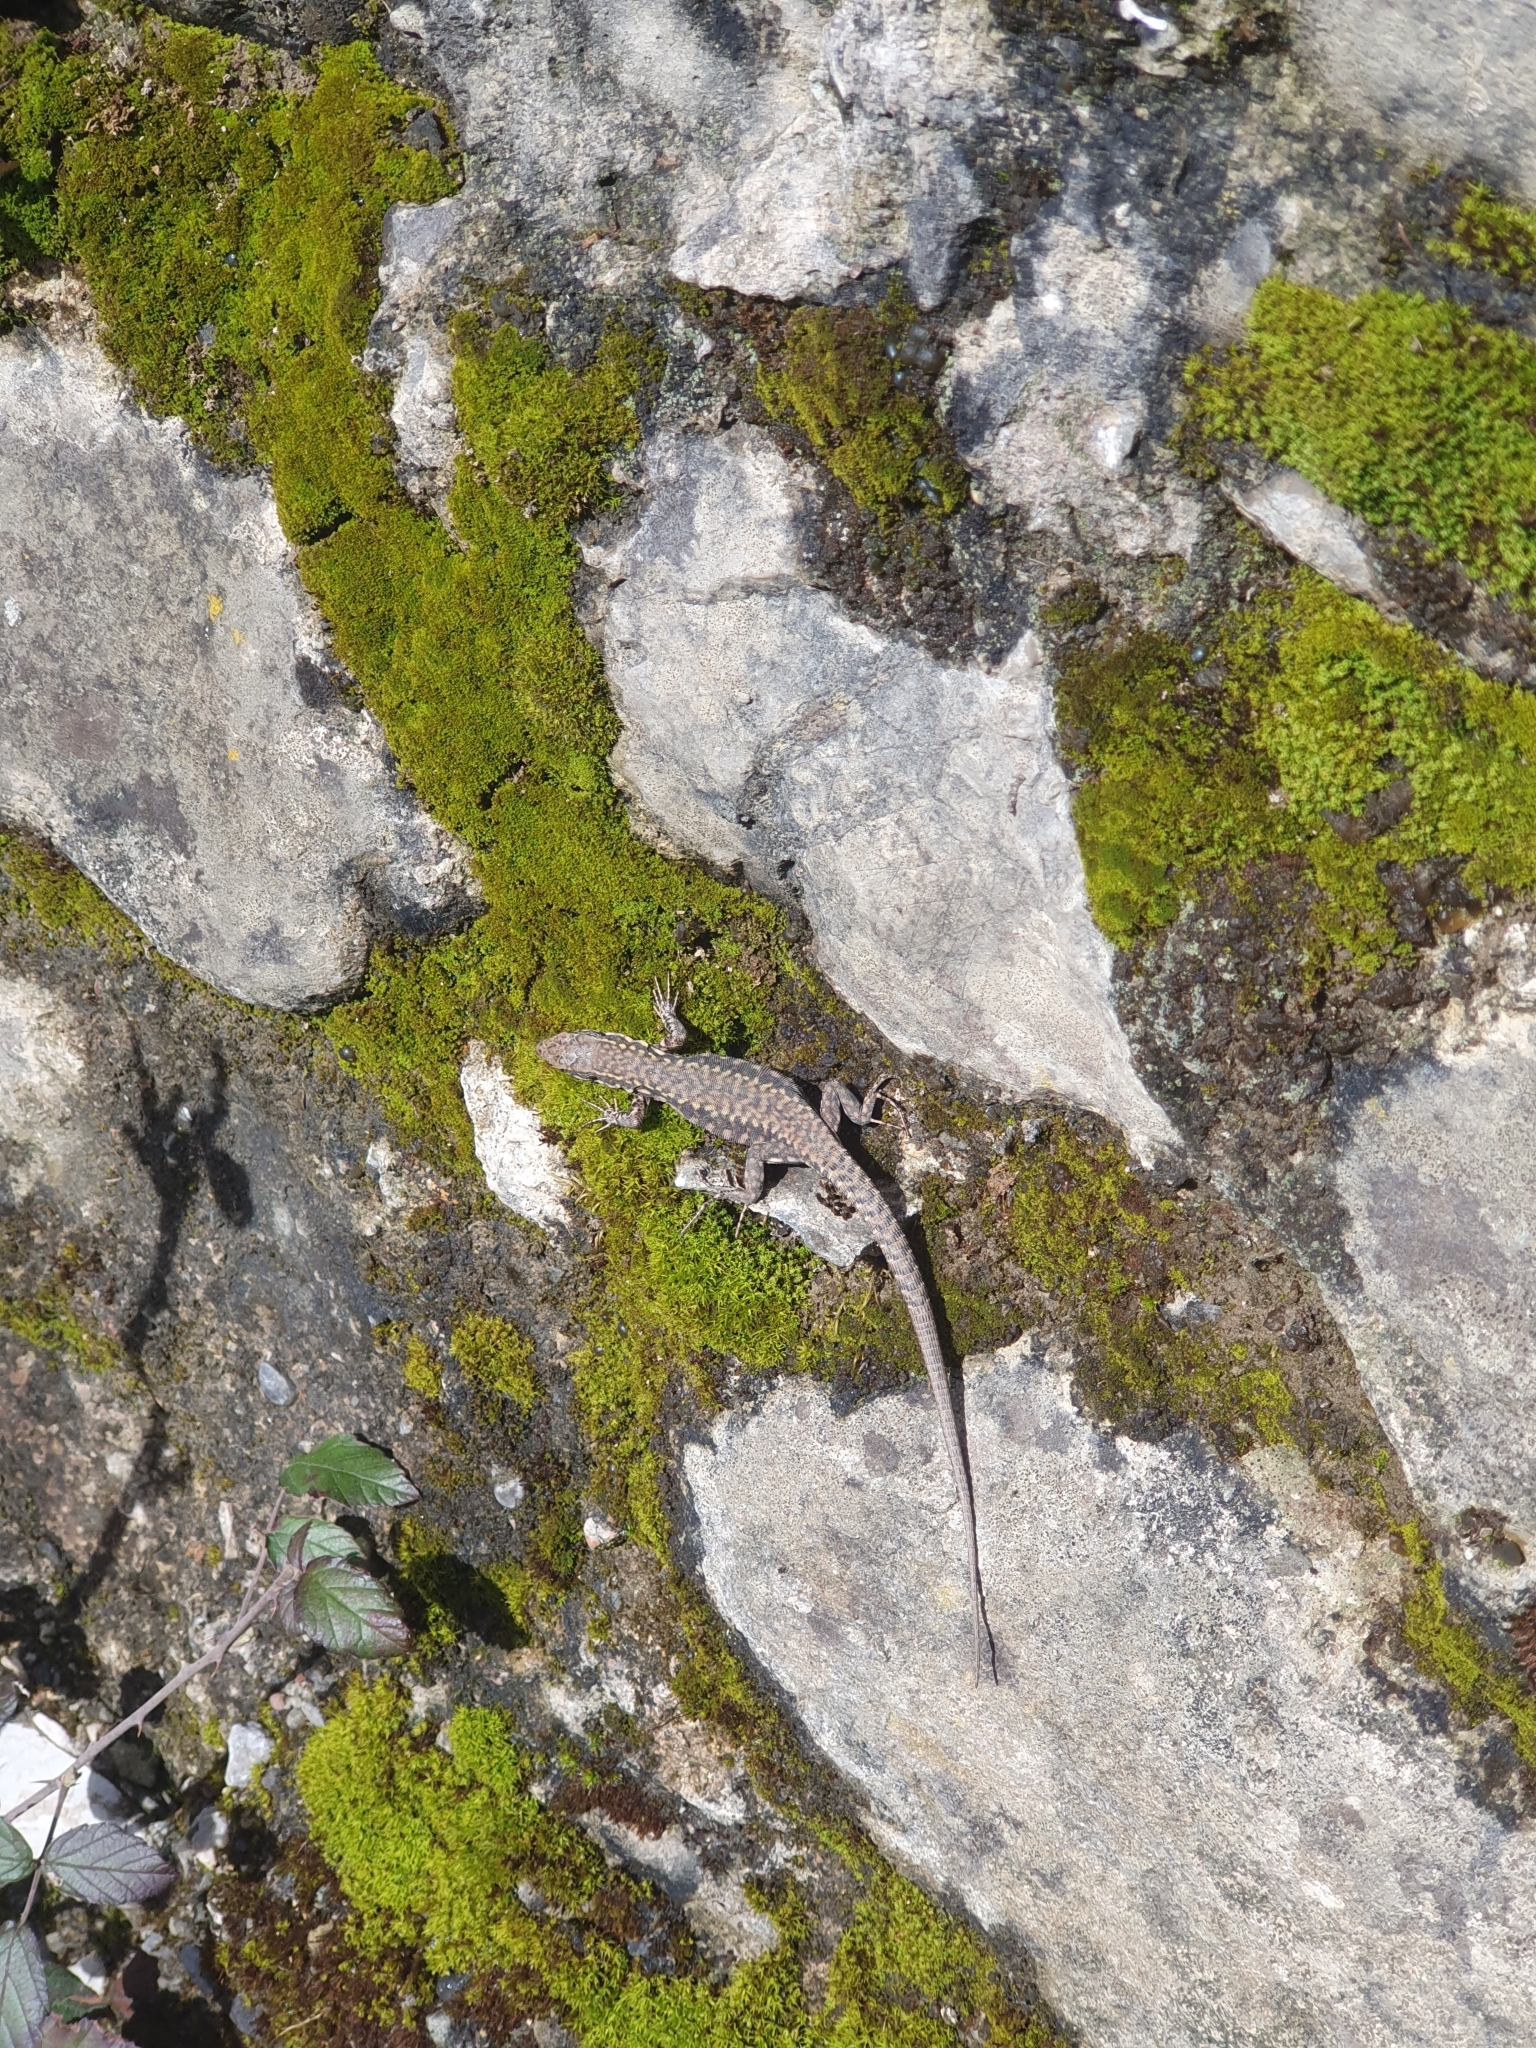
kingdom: Animalia
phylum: Chordata
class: Squamata
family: Lacertidae
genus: Podarcis
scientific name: Podarcis muralis
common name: Common wall lizard
